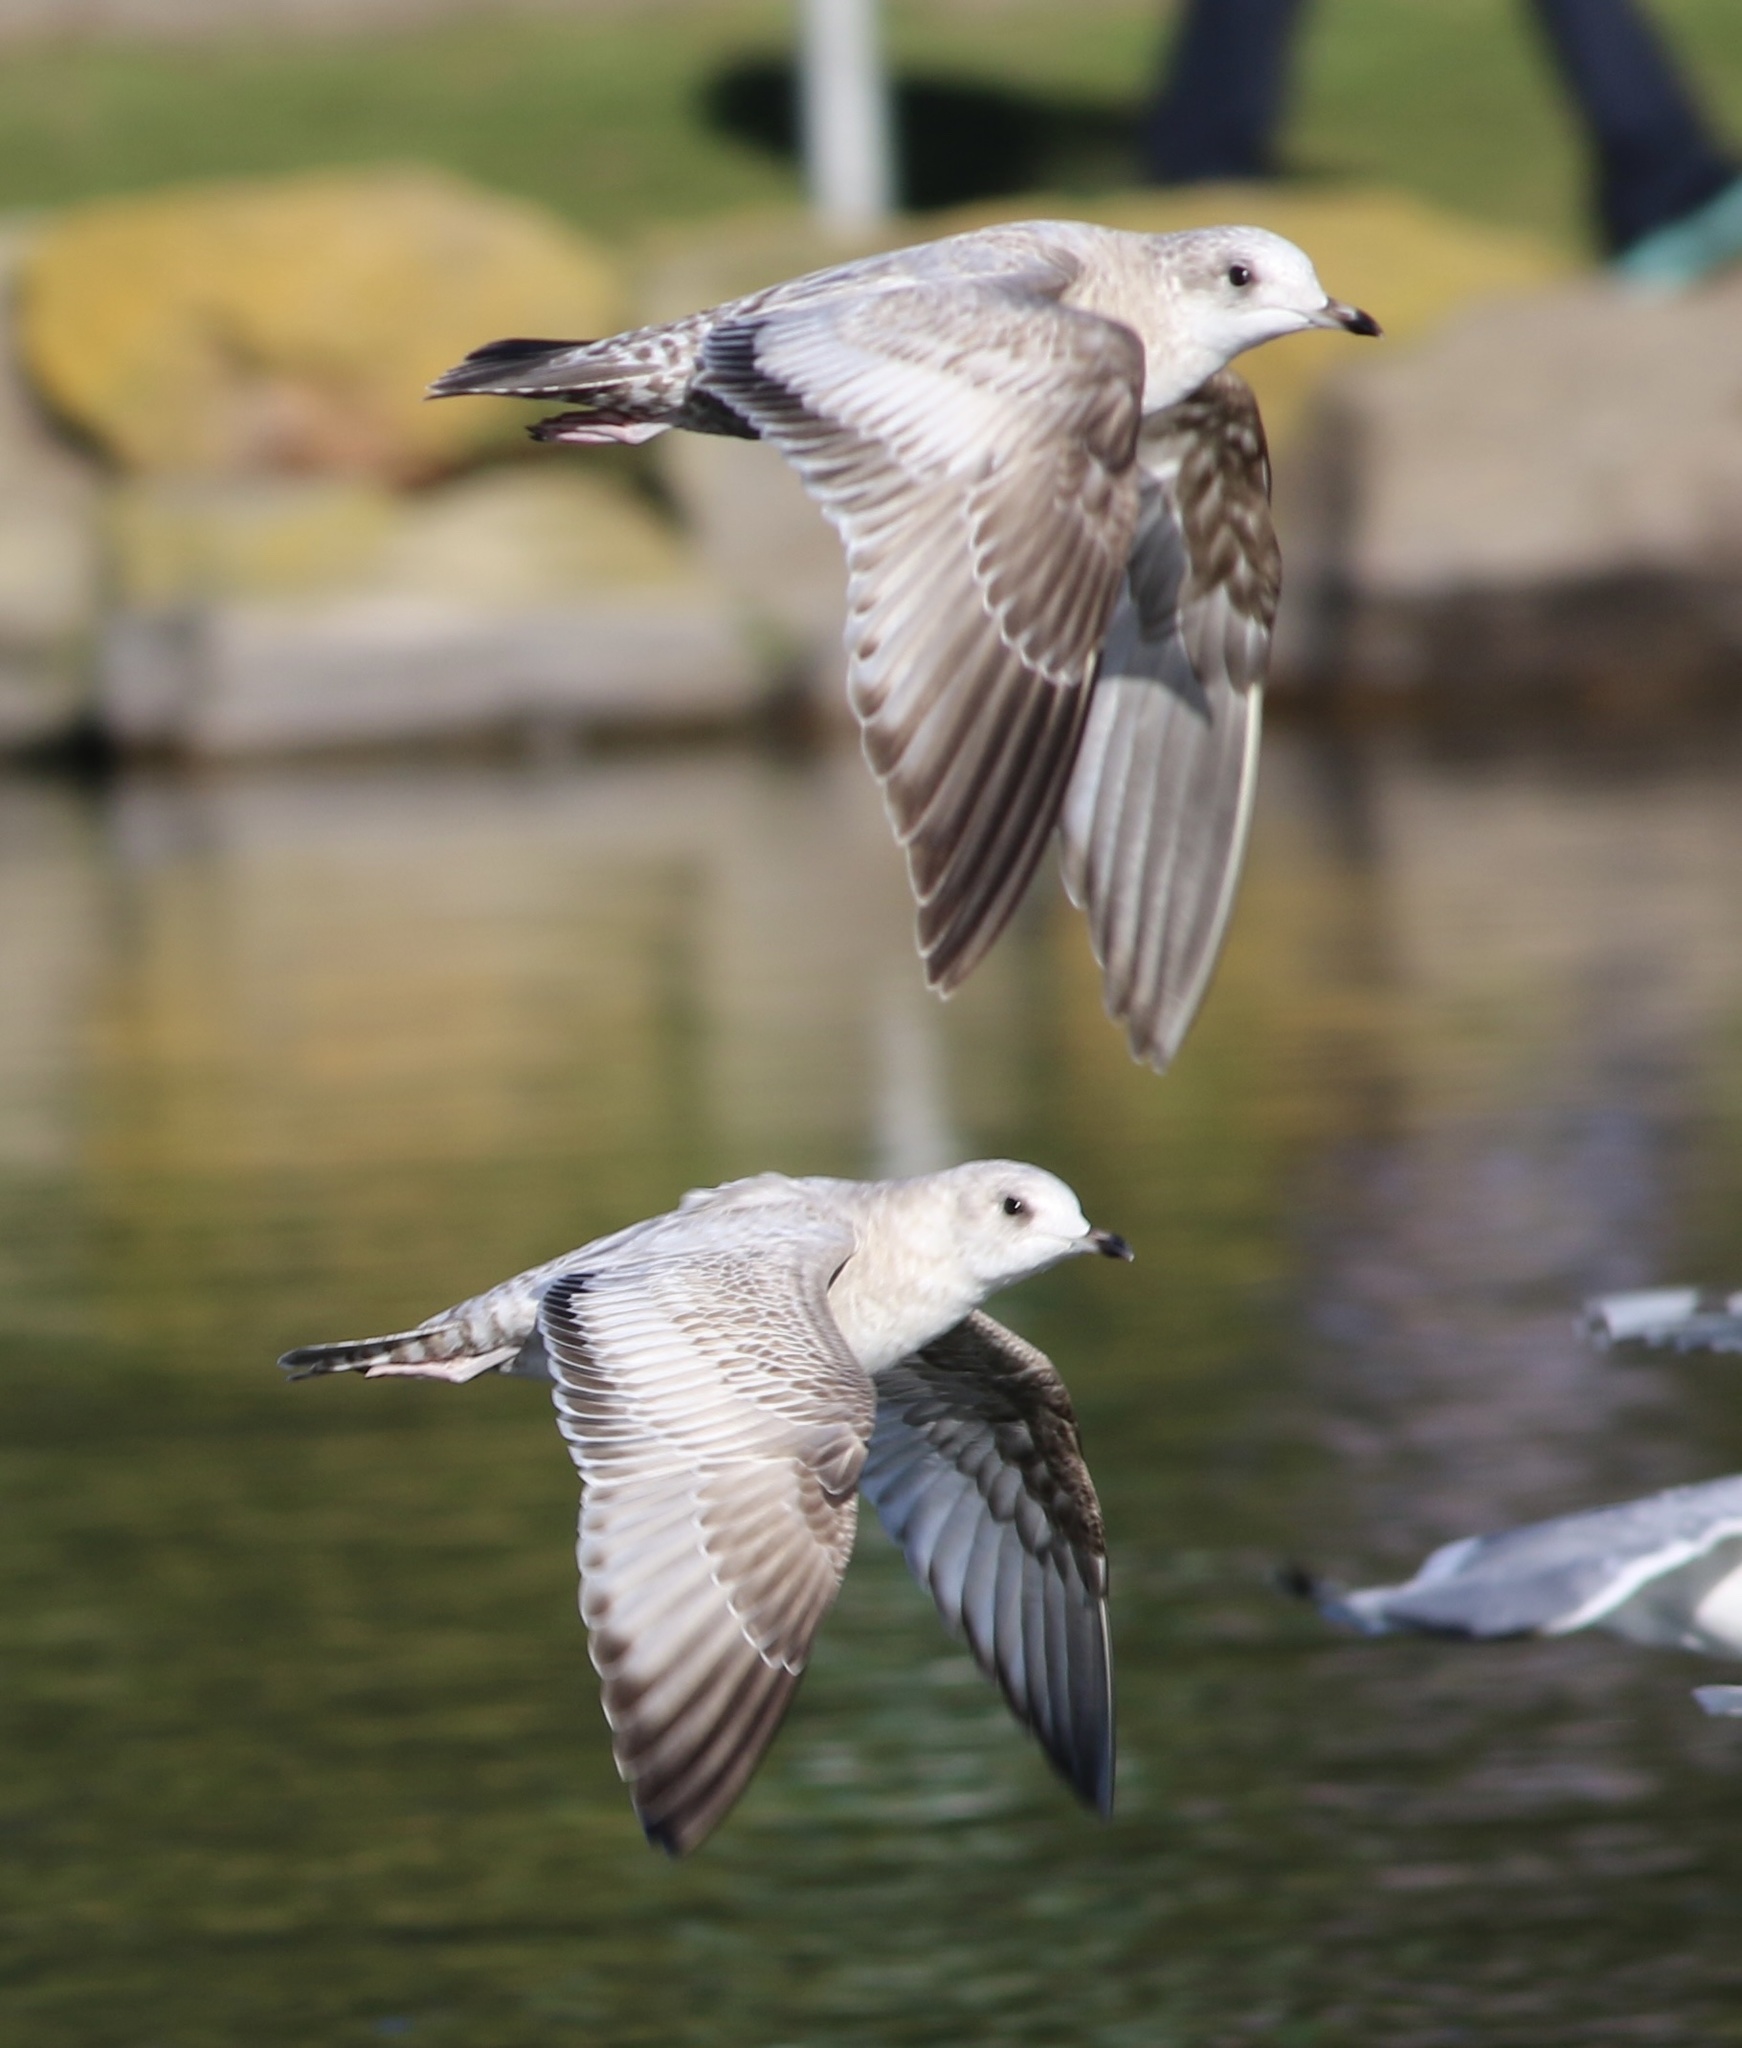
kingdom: Animalia
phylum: Chordata
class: Aves
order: Charadriiformes
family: Laridae
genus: Larus
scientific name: Larus brachyrhynchus
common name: Short-billed gull
